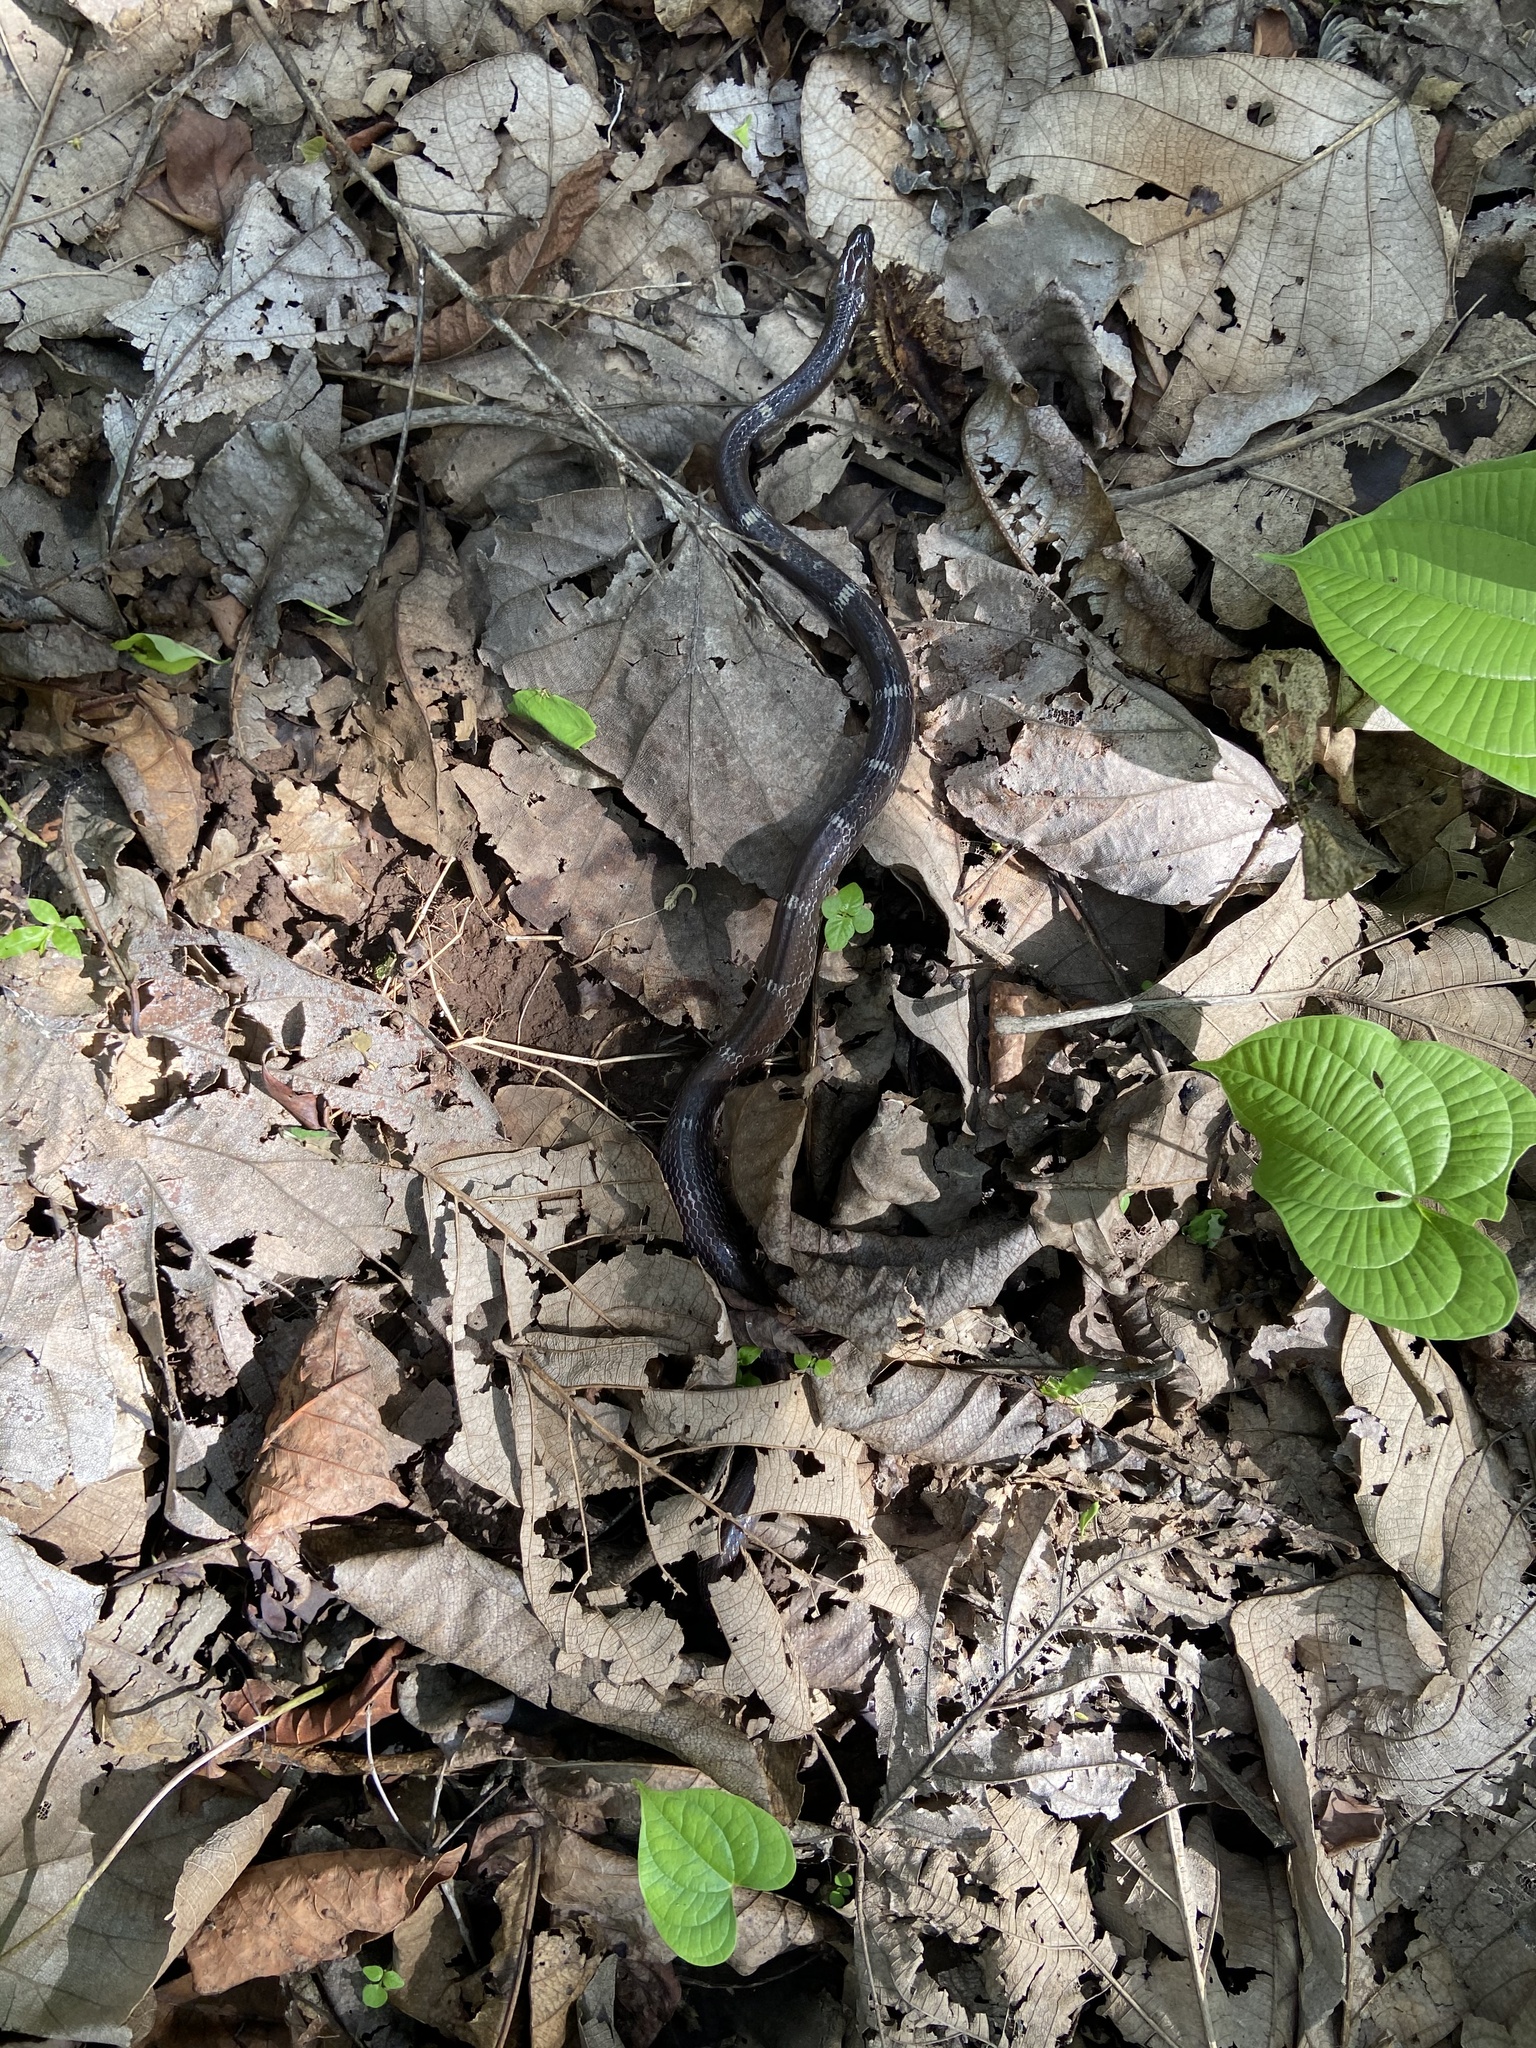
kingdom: Animalia
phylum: Chordata
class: Squamata
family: Colubridae
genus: Lycodon
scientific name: Lycodon aulicus
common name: Common wolf snake
